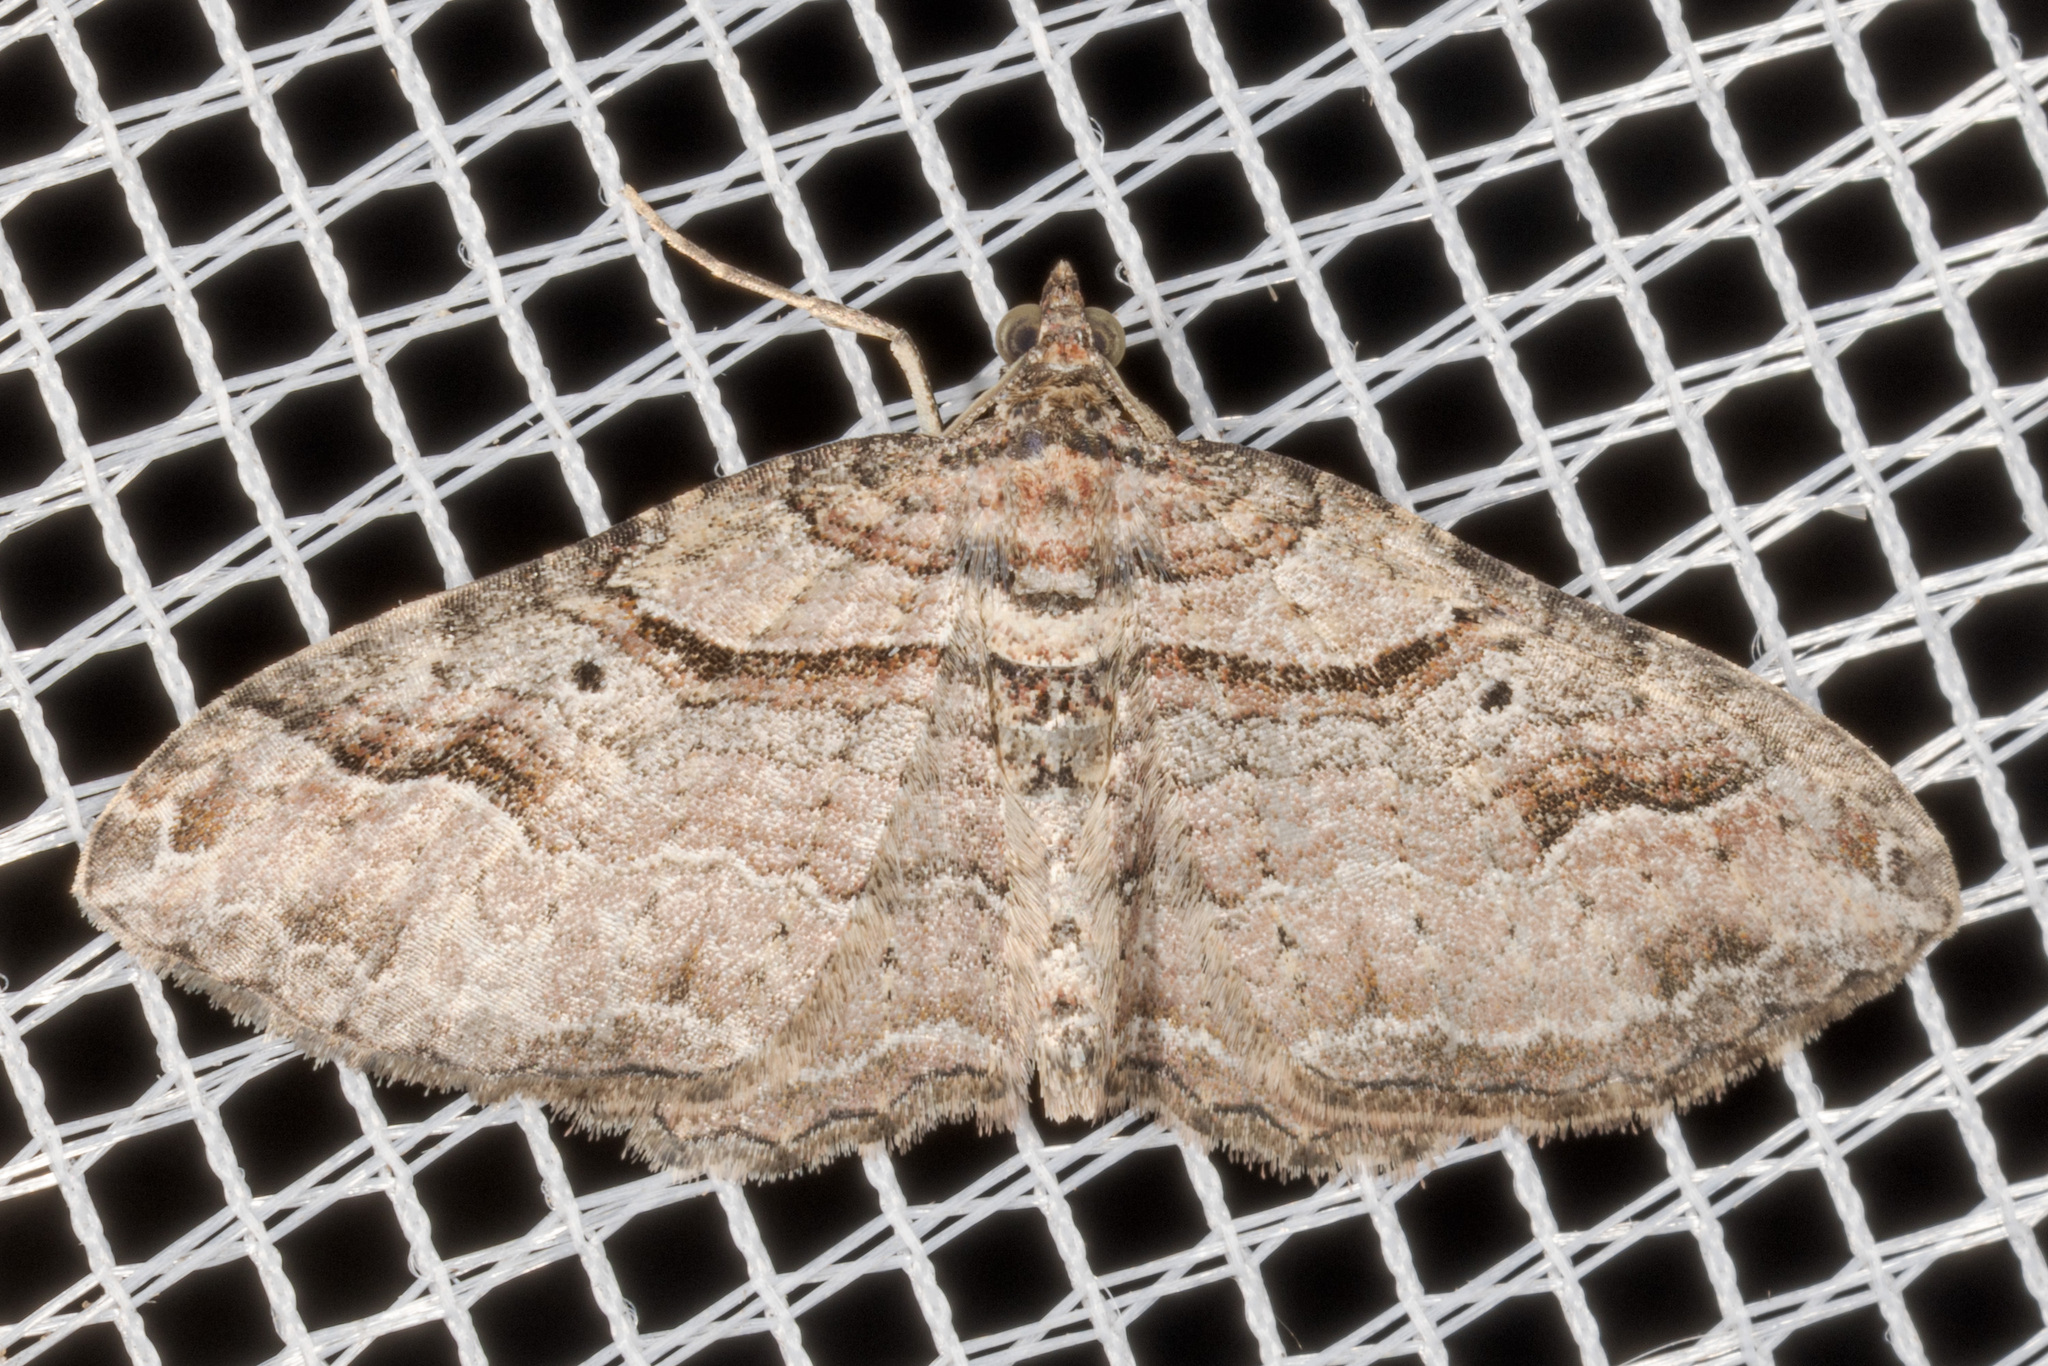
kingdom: Animalia
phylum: Arthropoda
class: Insecta
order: Lepidoptera
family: Geometridae
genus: Costaconvexa
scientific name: Costaconvexa centrostrigaria
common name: Bent-line carpet
